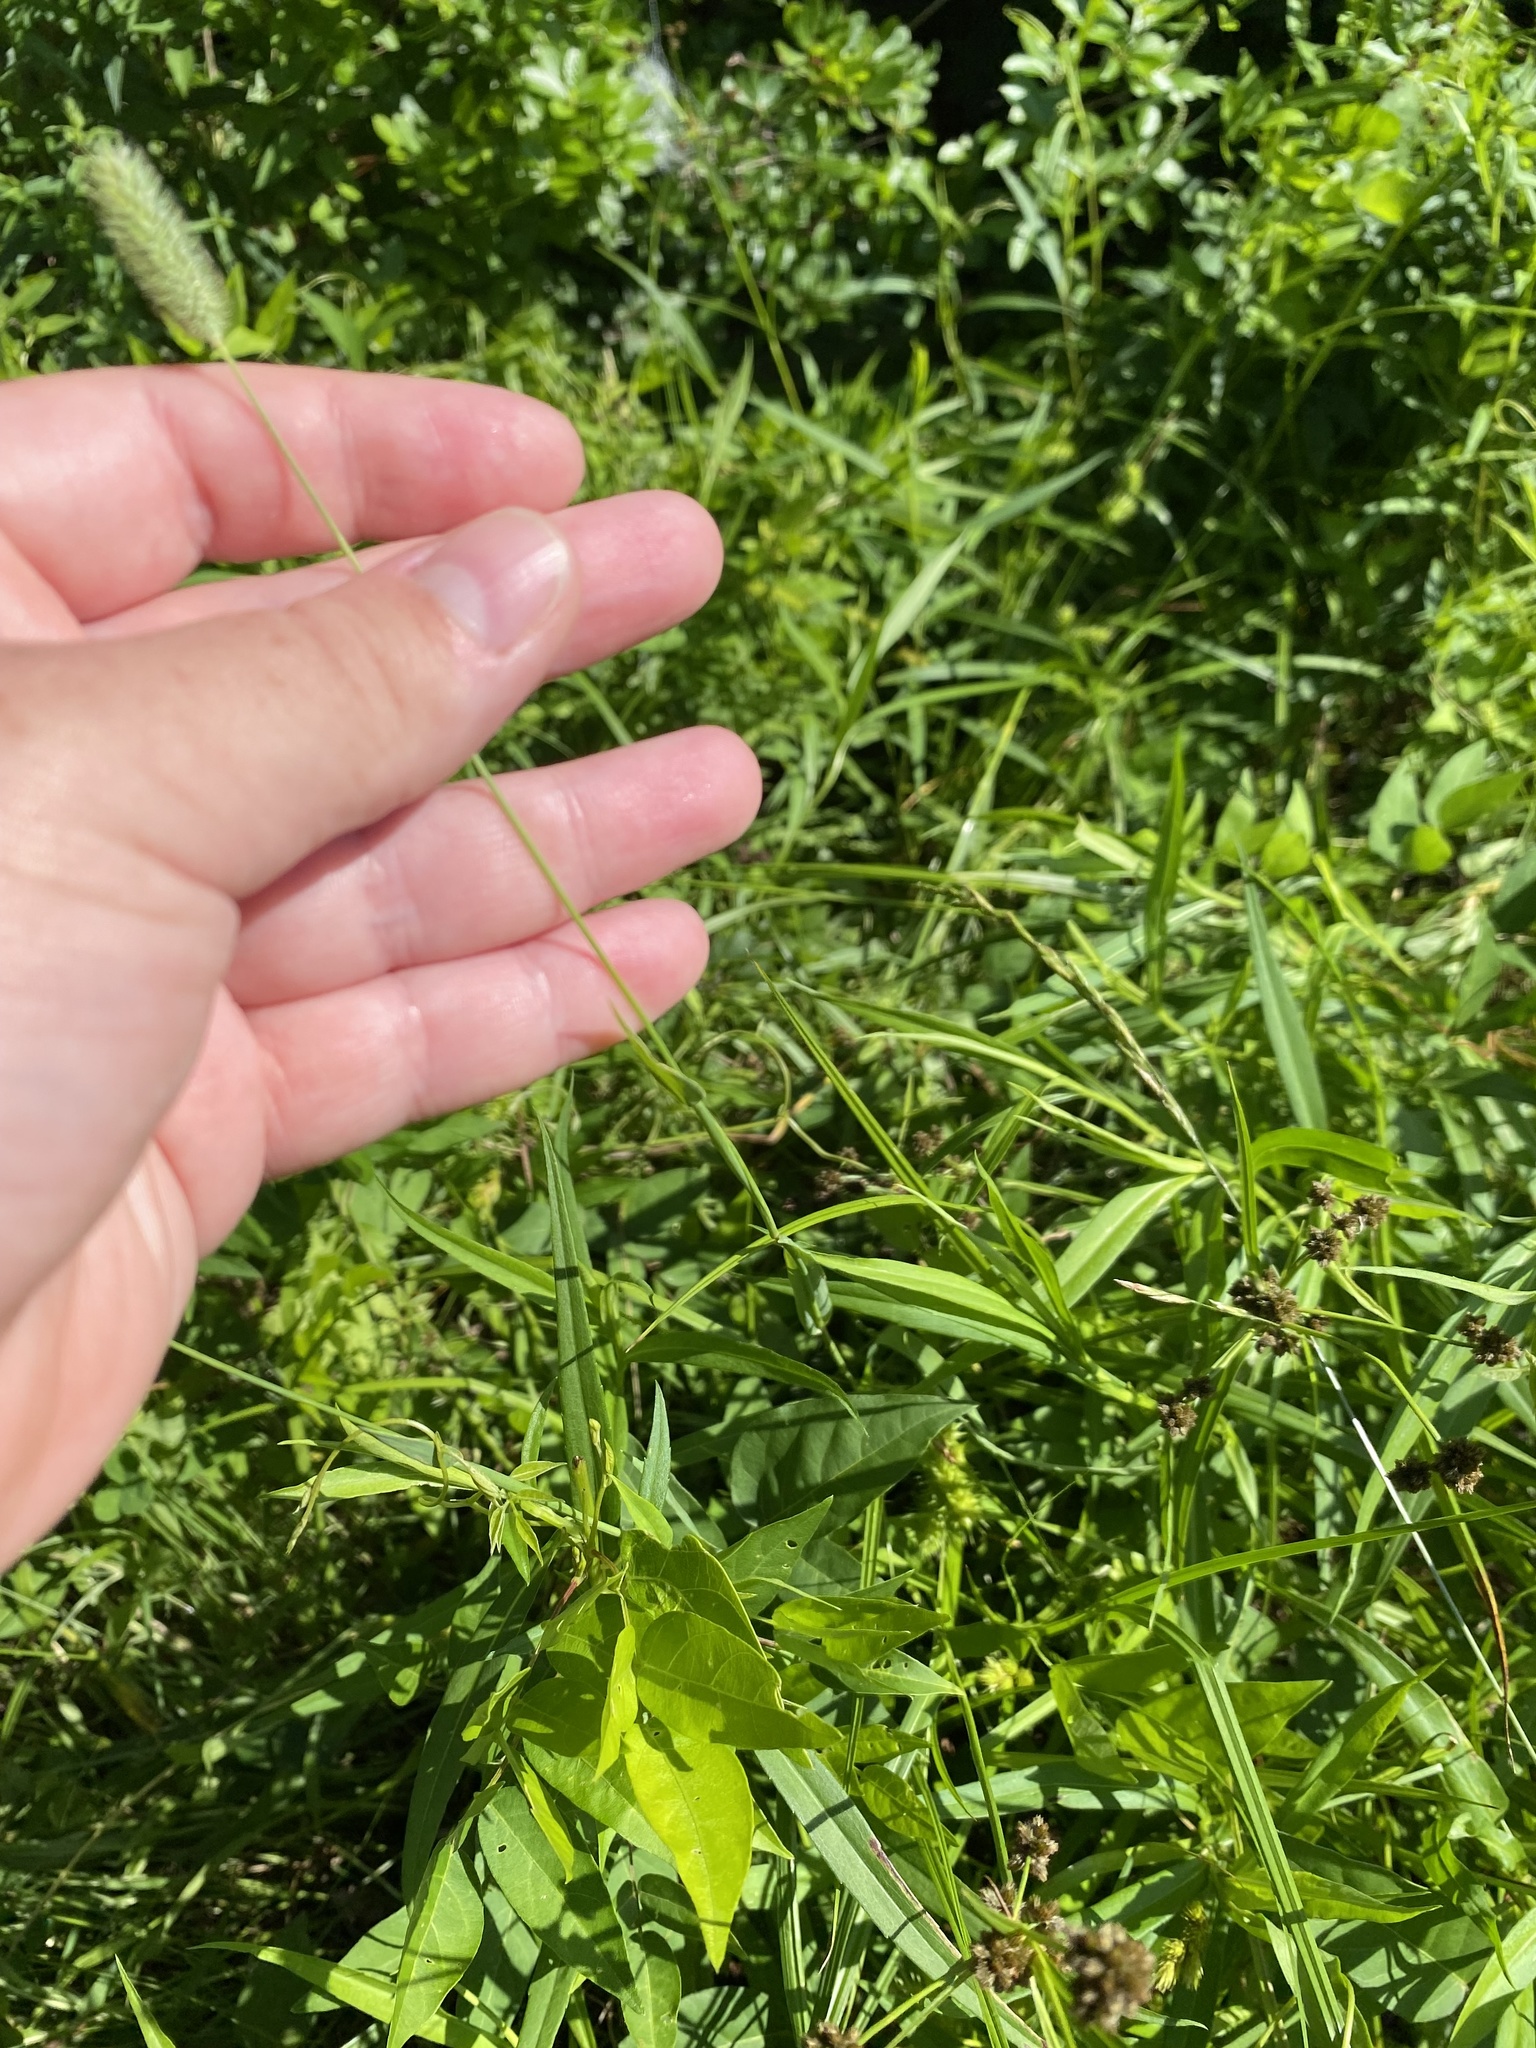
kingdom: Plantae
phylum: Tracheophyta
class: Liliopsida
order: Poales
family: Poaceae
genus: Phleum
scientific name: Phleum pratense
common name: Timothy grass
